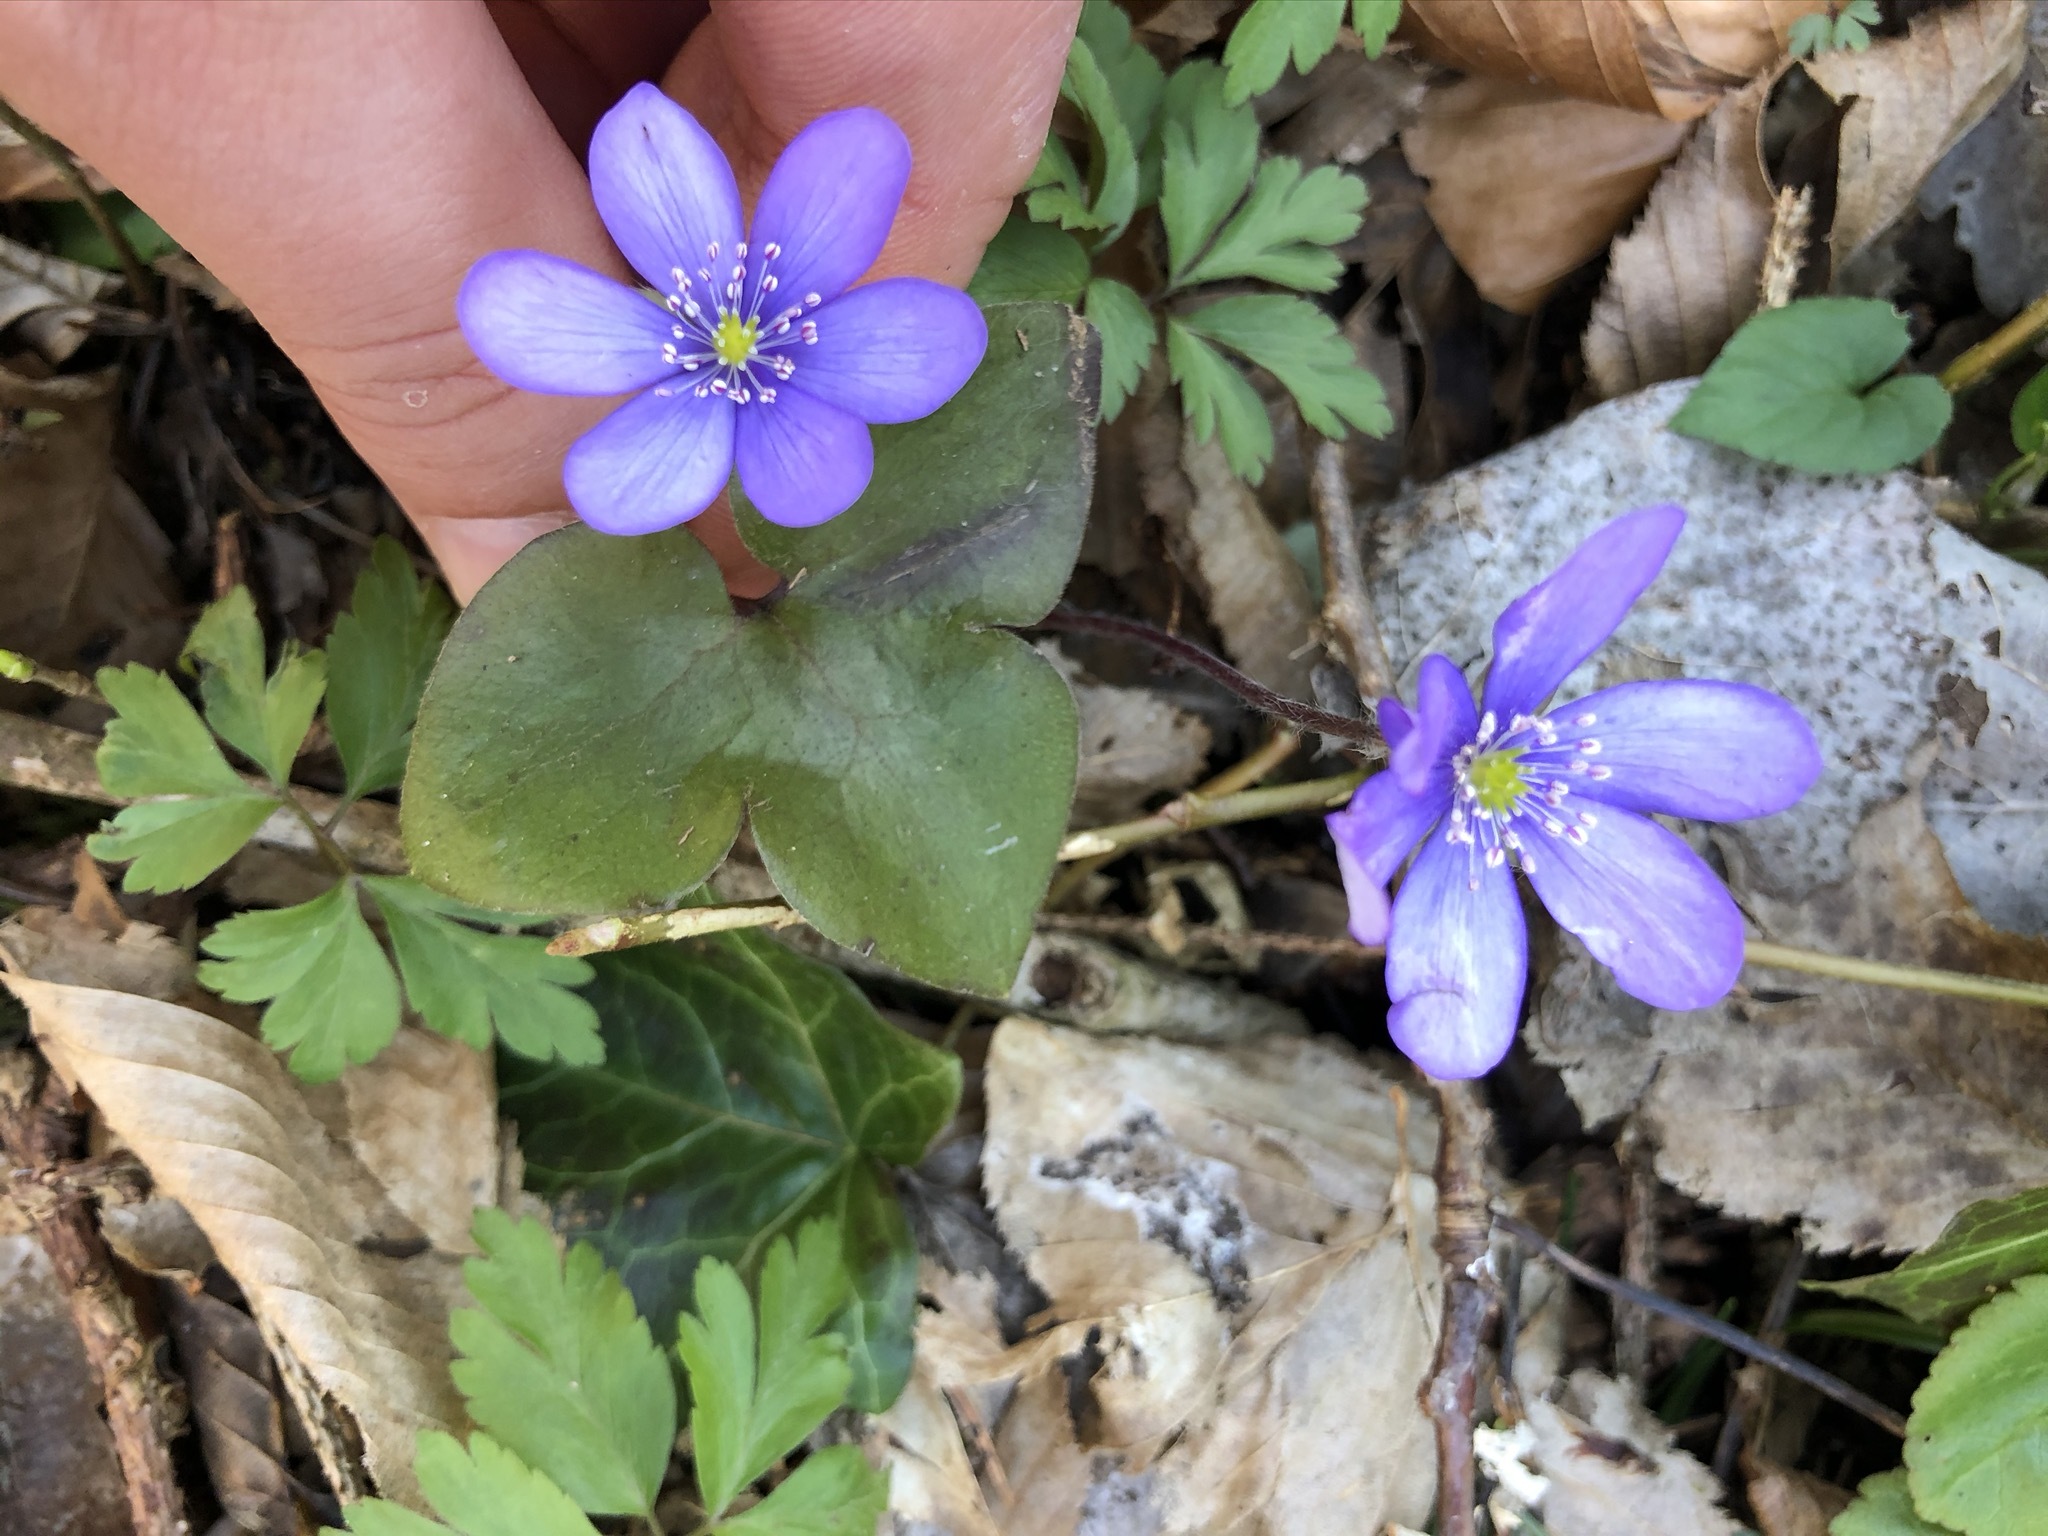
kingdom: Plantae
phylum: Tracheophyta
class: Magnoliopsida
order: Ranunculales
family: Ranunculaceae
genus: Hepatica
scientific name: Hepatica nobilis
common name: Liverleaf
